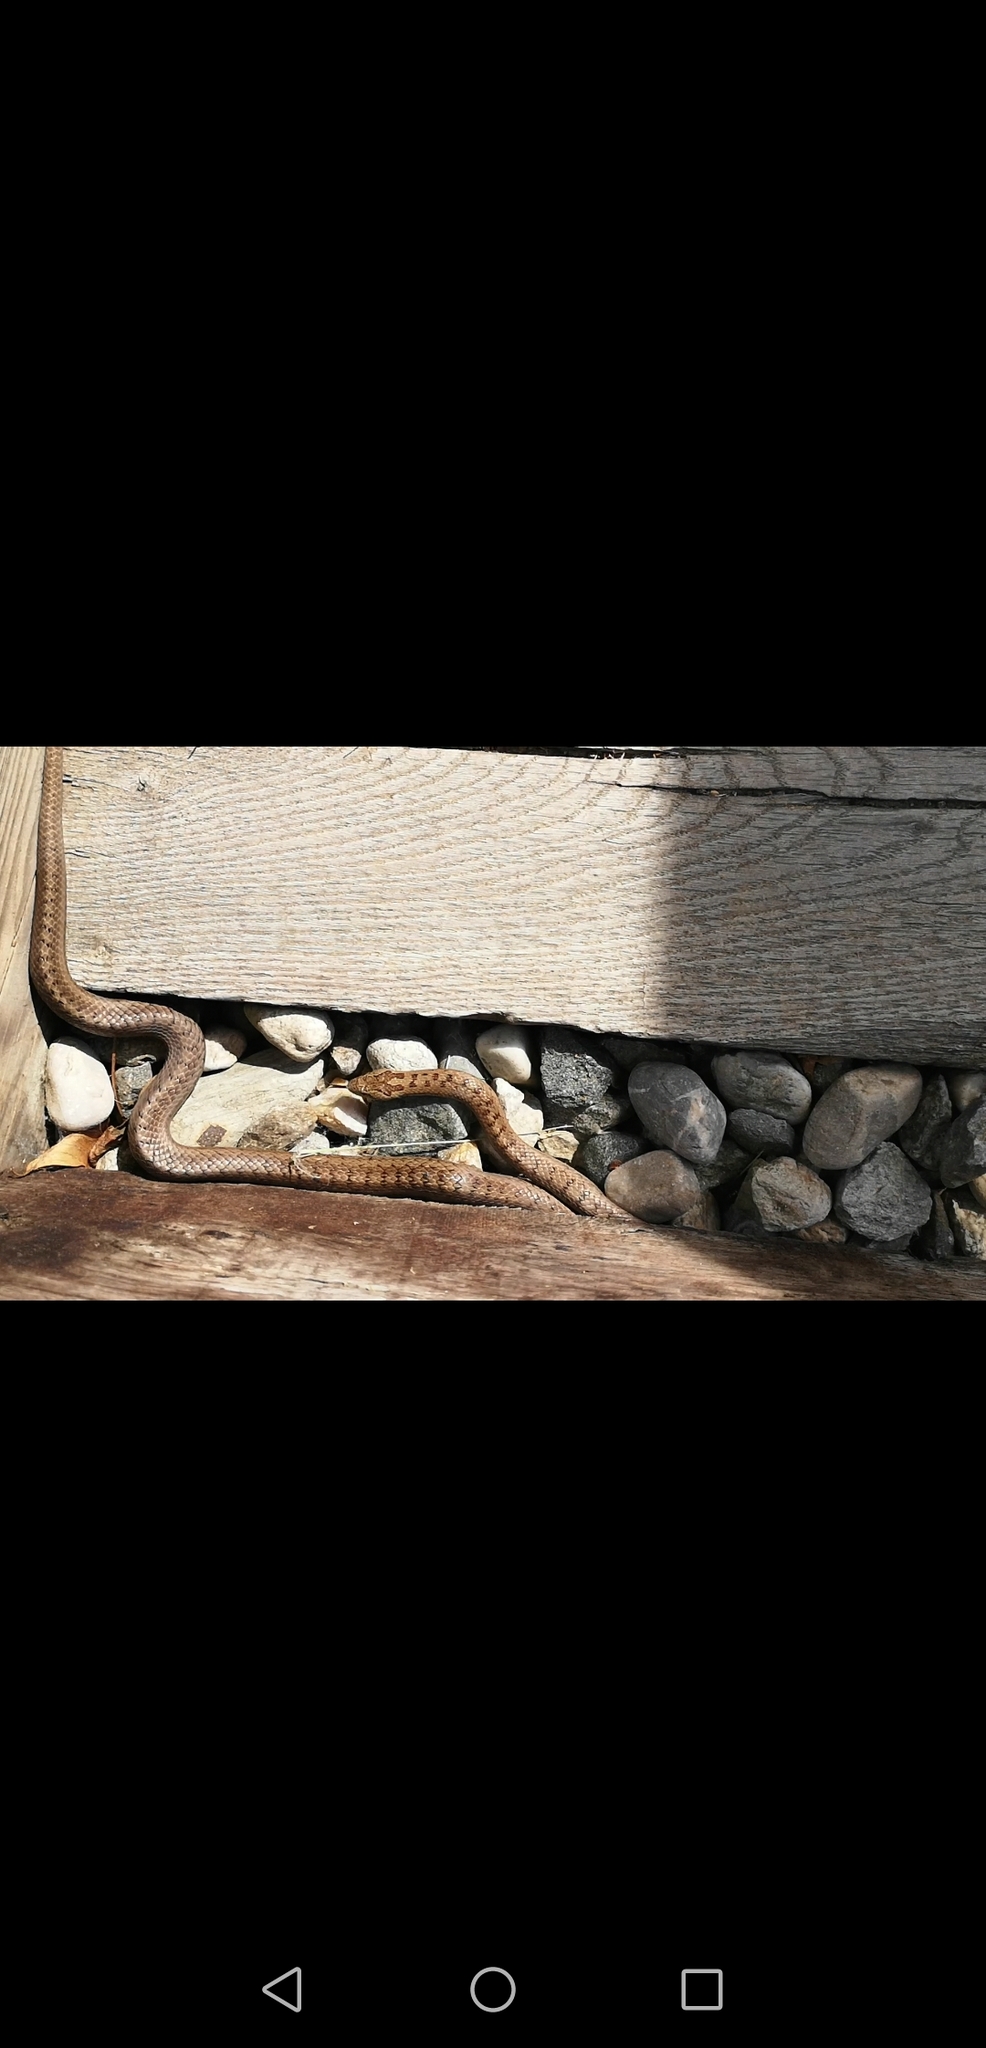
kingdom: Animalia
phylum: Chordata
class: Squamata
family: Colubridae
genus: Coronella
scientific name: Coronella austriaca
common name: Smooth snake
